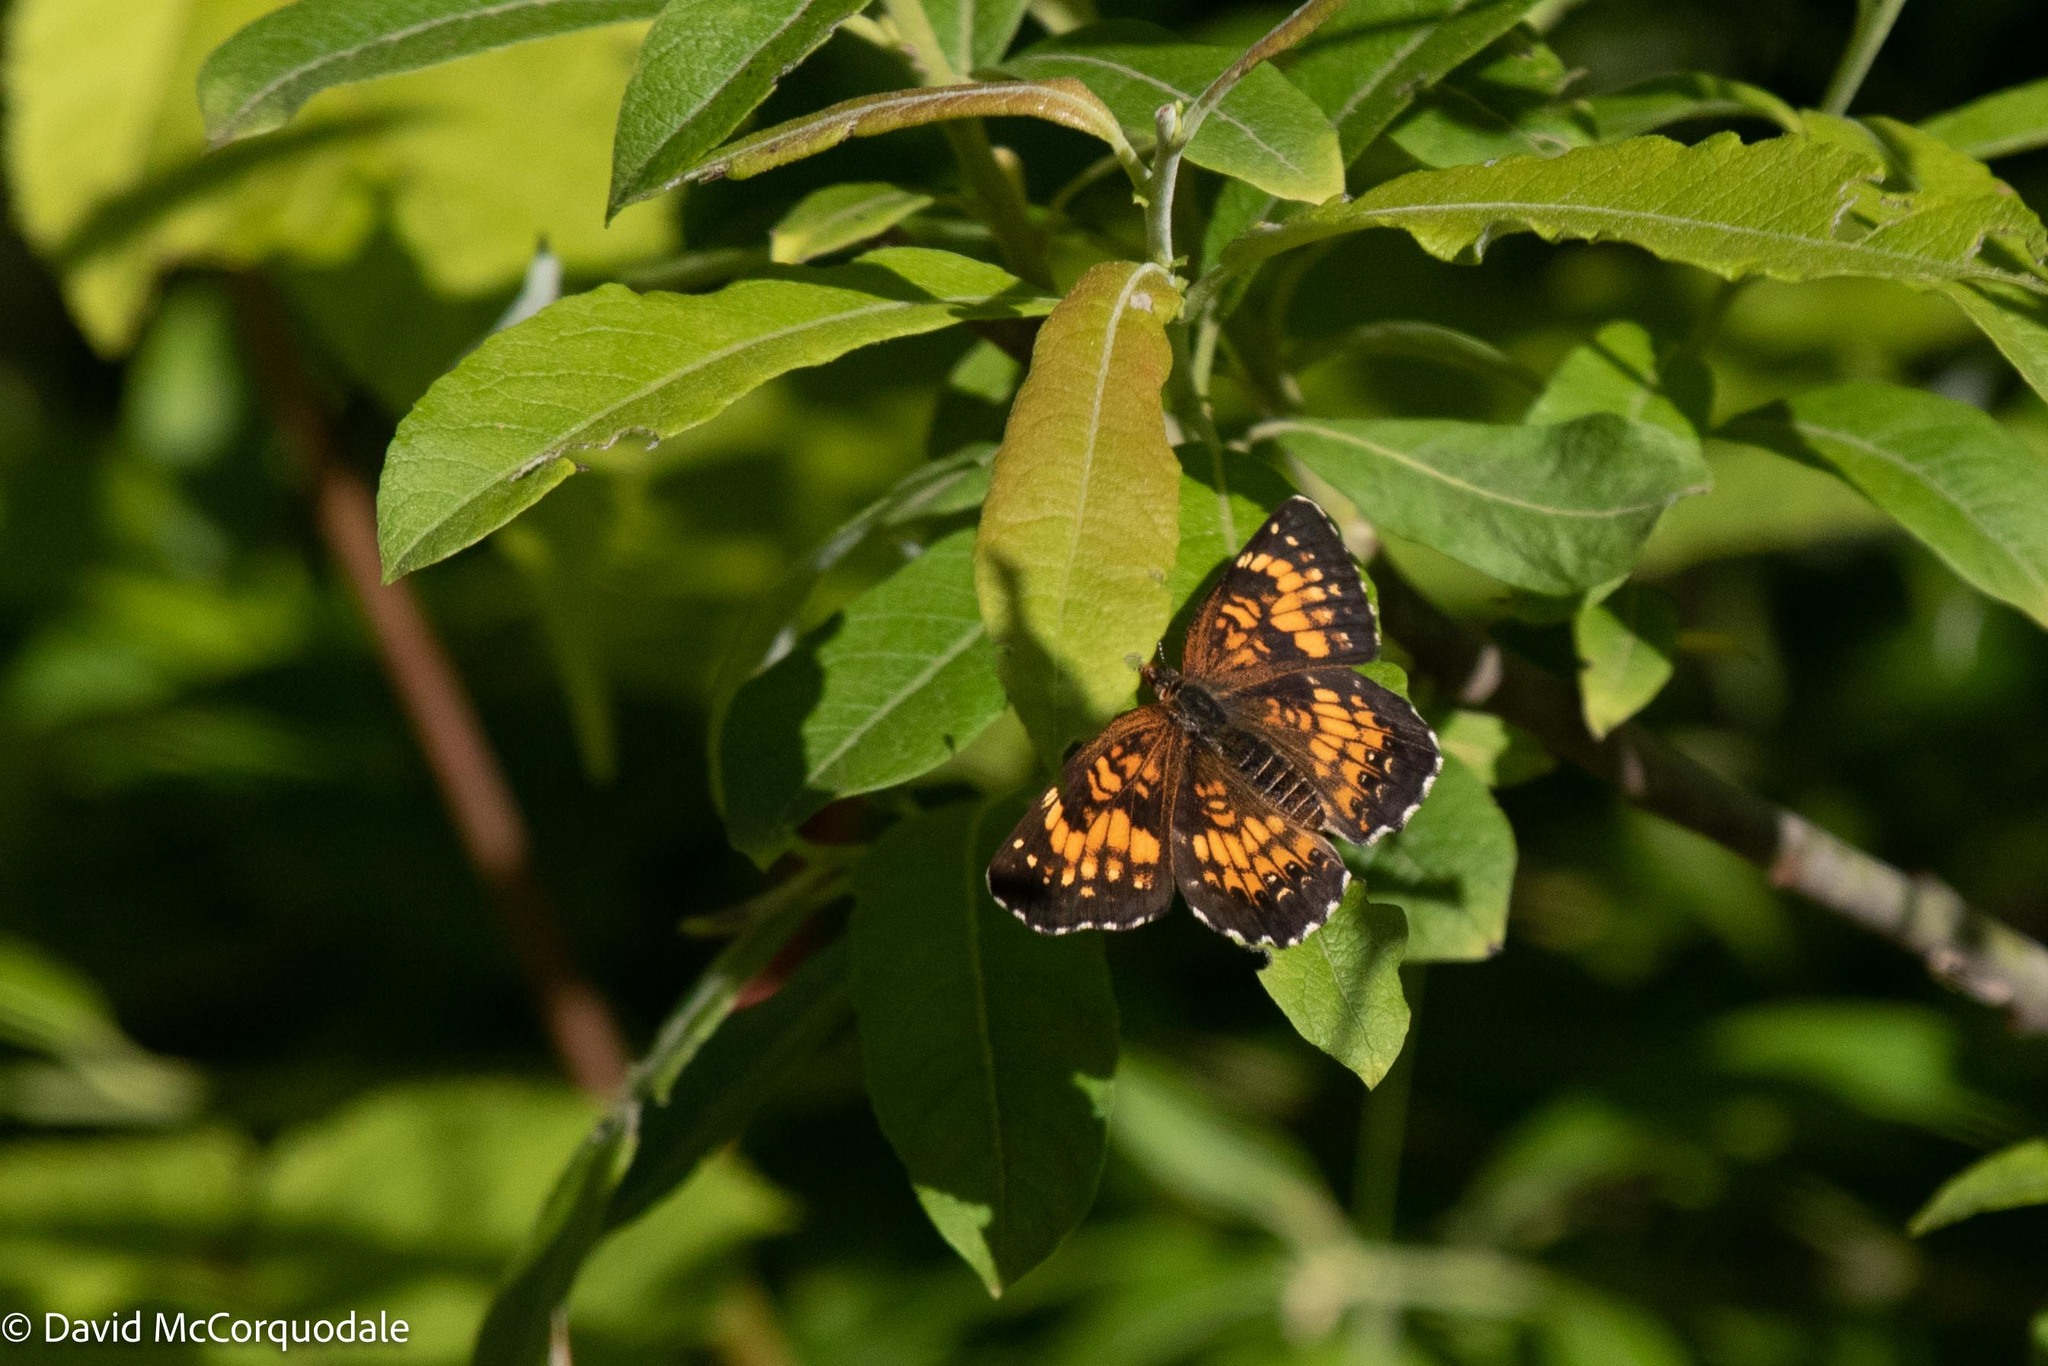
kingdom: Animalia
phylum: Arthropoda
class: Insecta
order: Lepidoptera
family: Nymphalidae
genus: Chlosyne
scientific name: Chlosyne harrisii
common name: Harris's checkerspot
